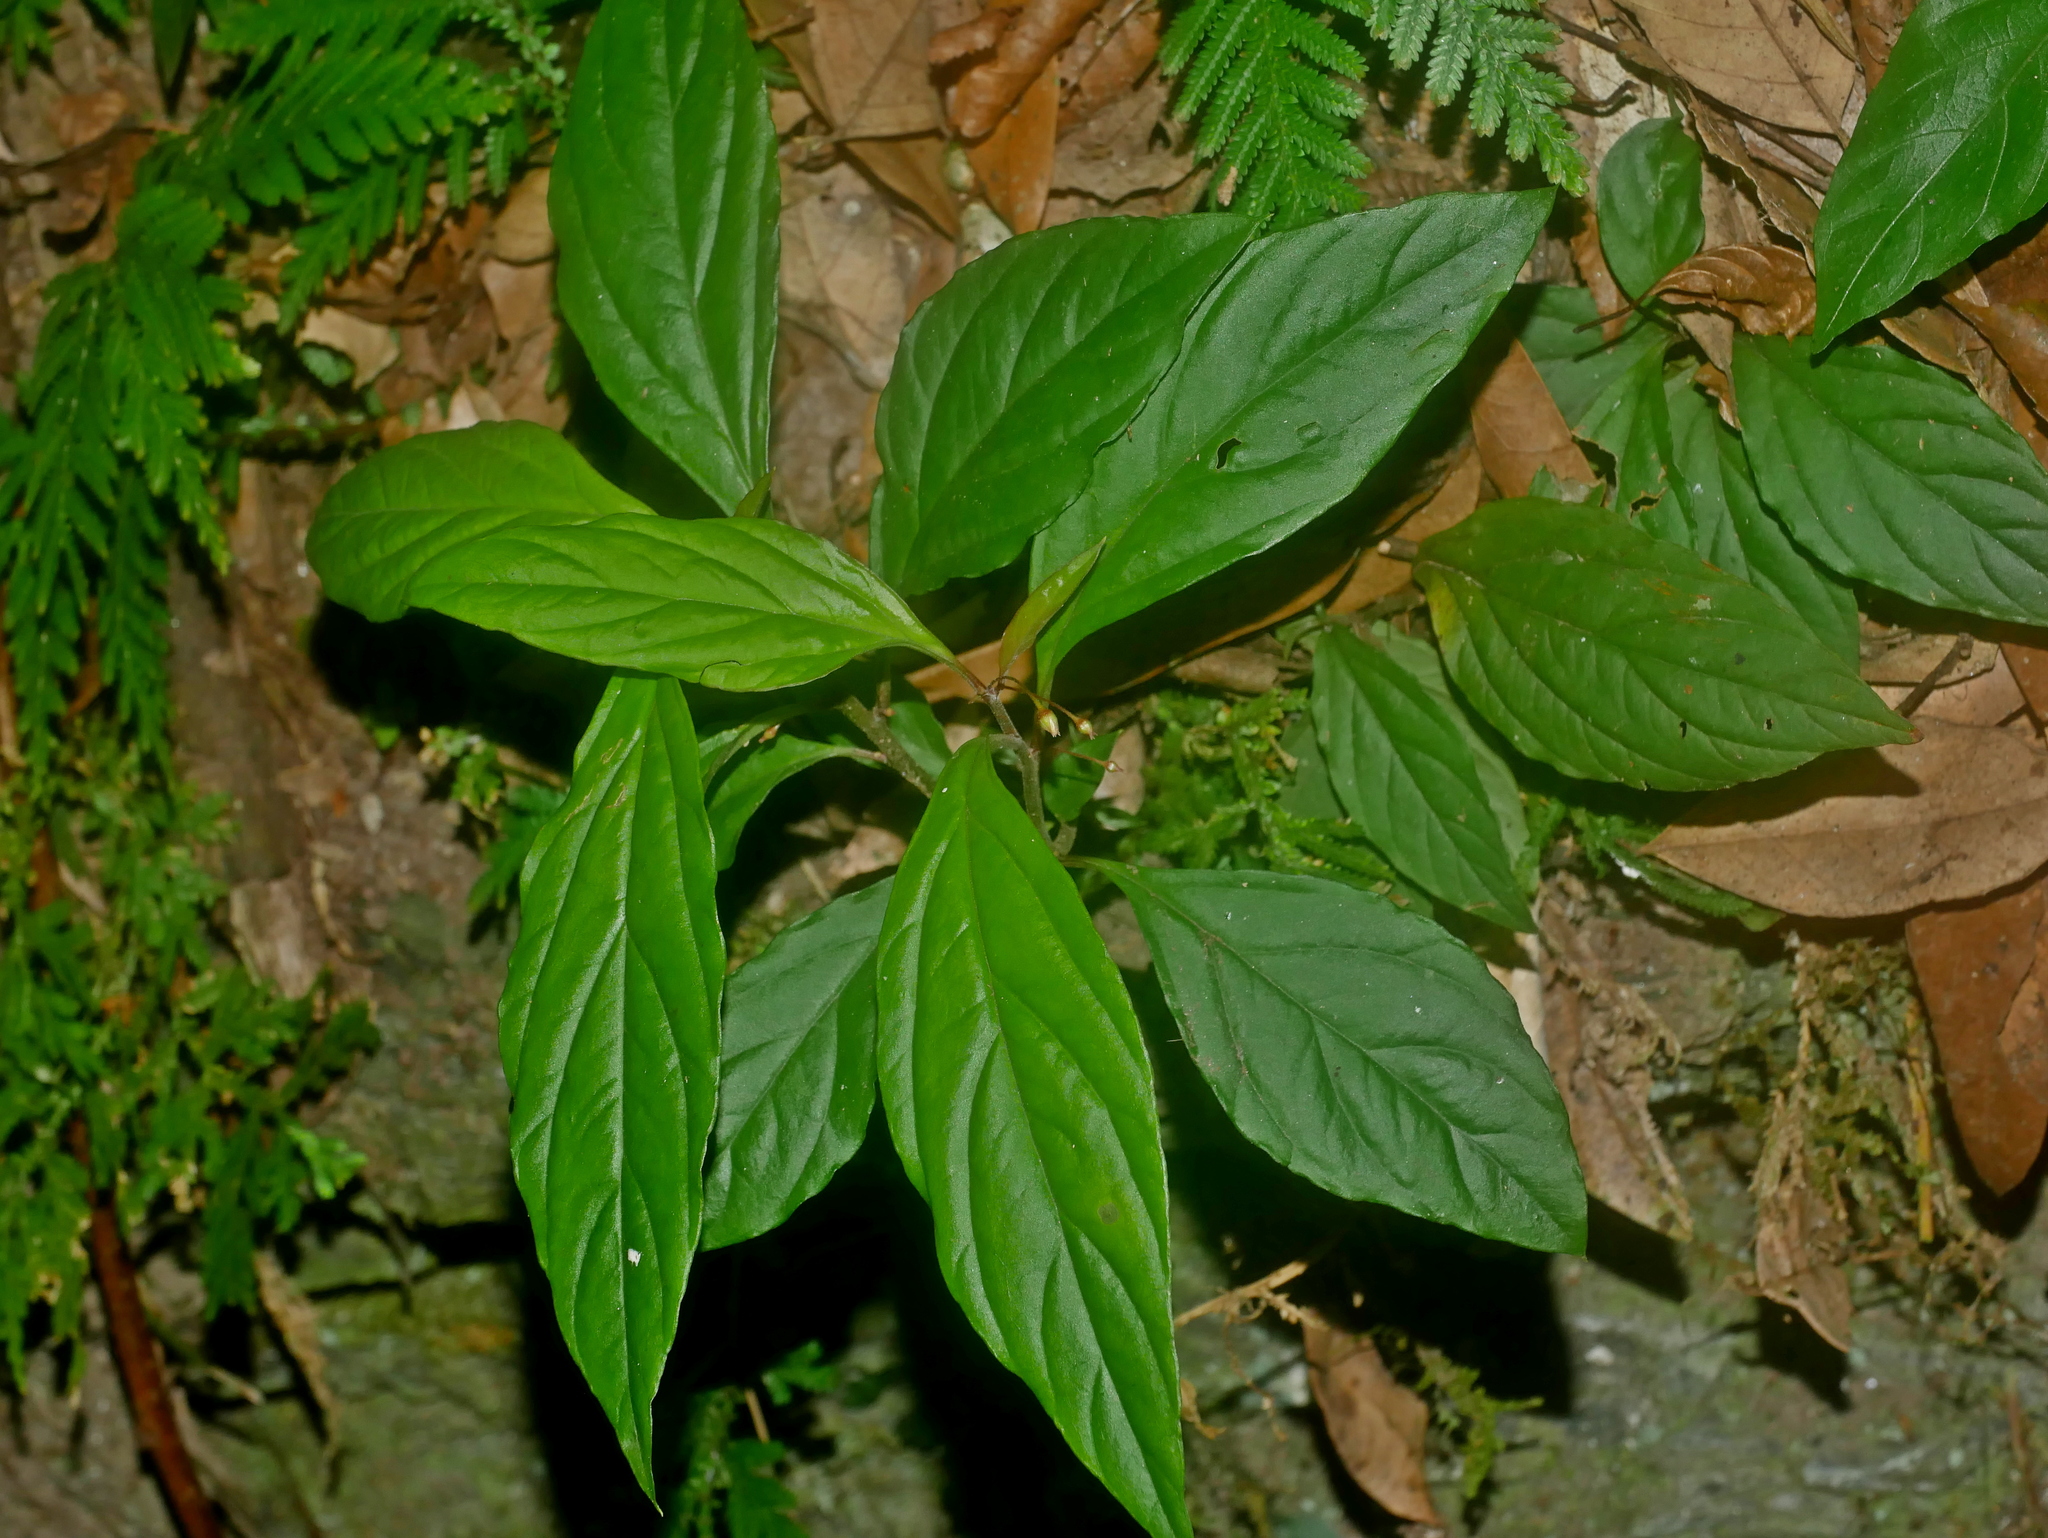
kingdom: Plantae
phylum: Tracheophyta
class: Magnoliopsida
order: Ericales
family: Primulaceae
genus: Lysimachia
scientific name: Lysimachia ardisioides
